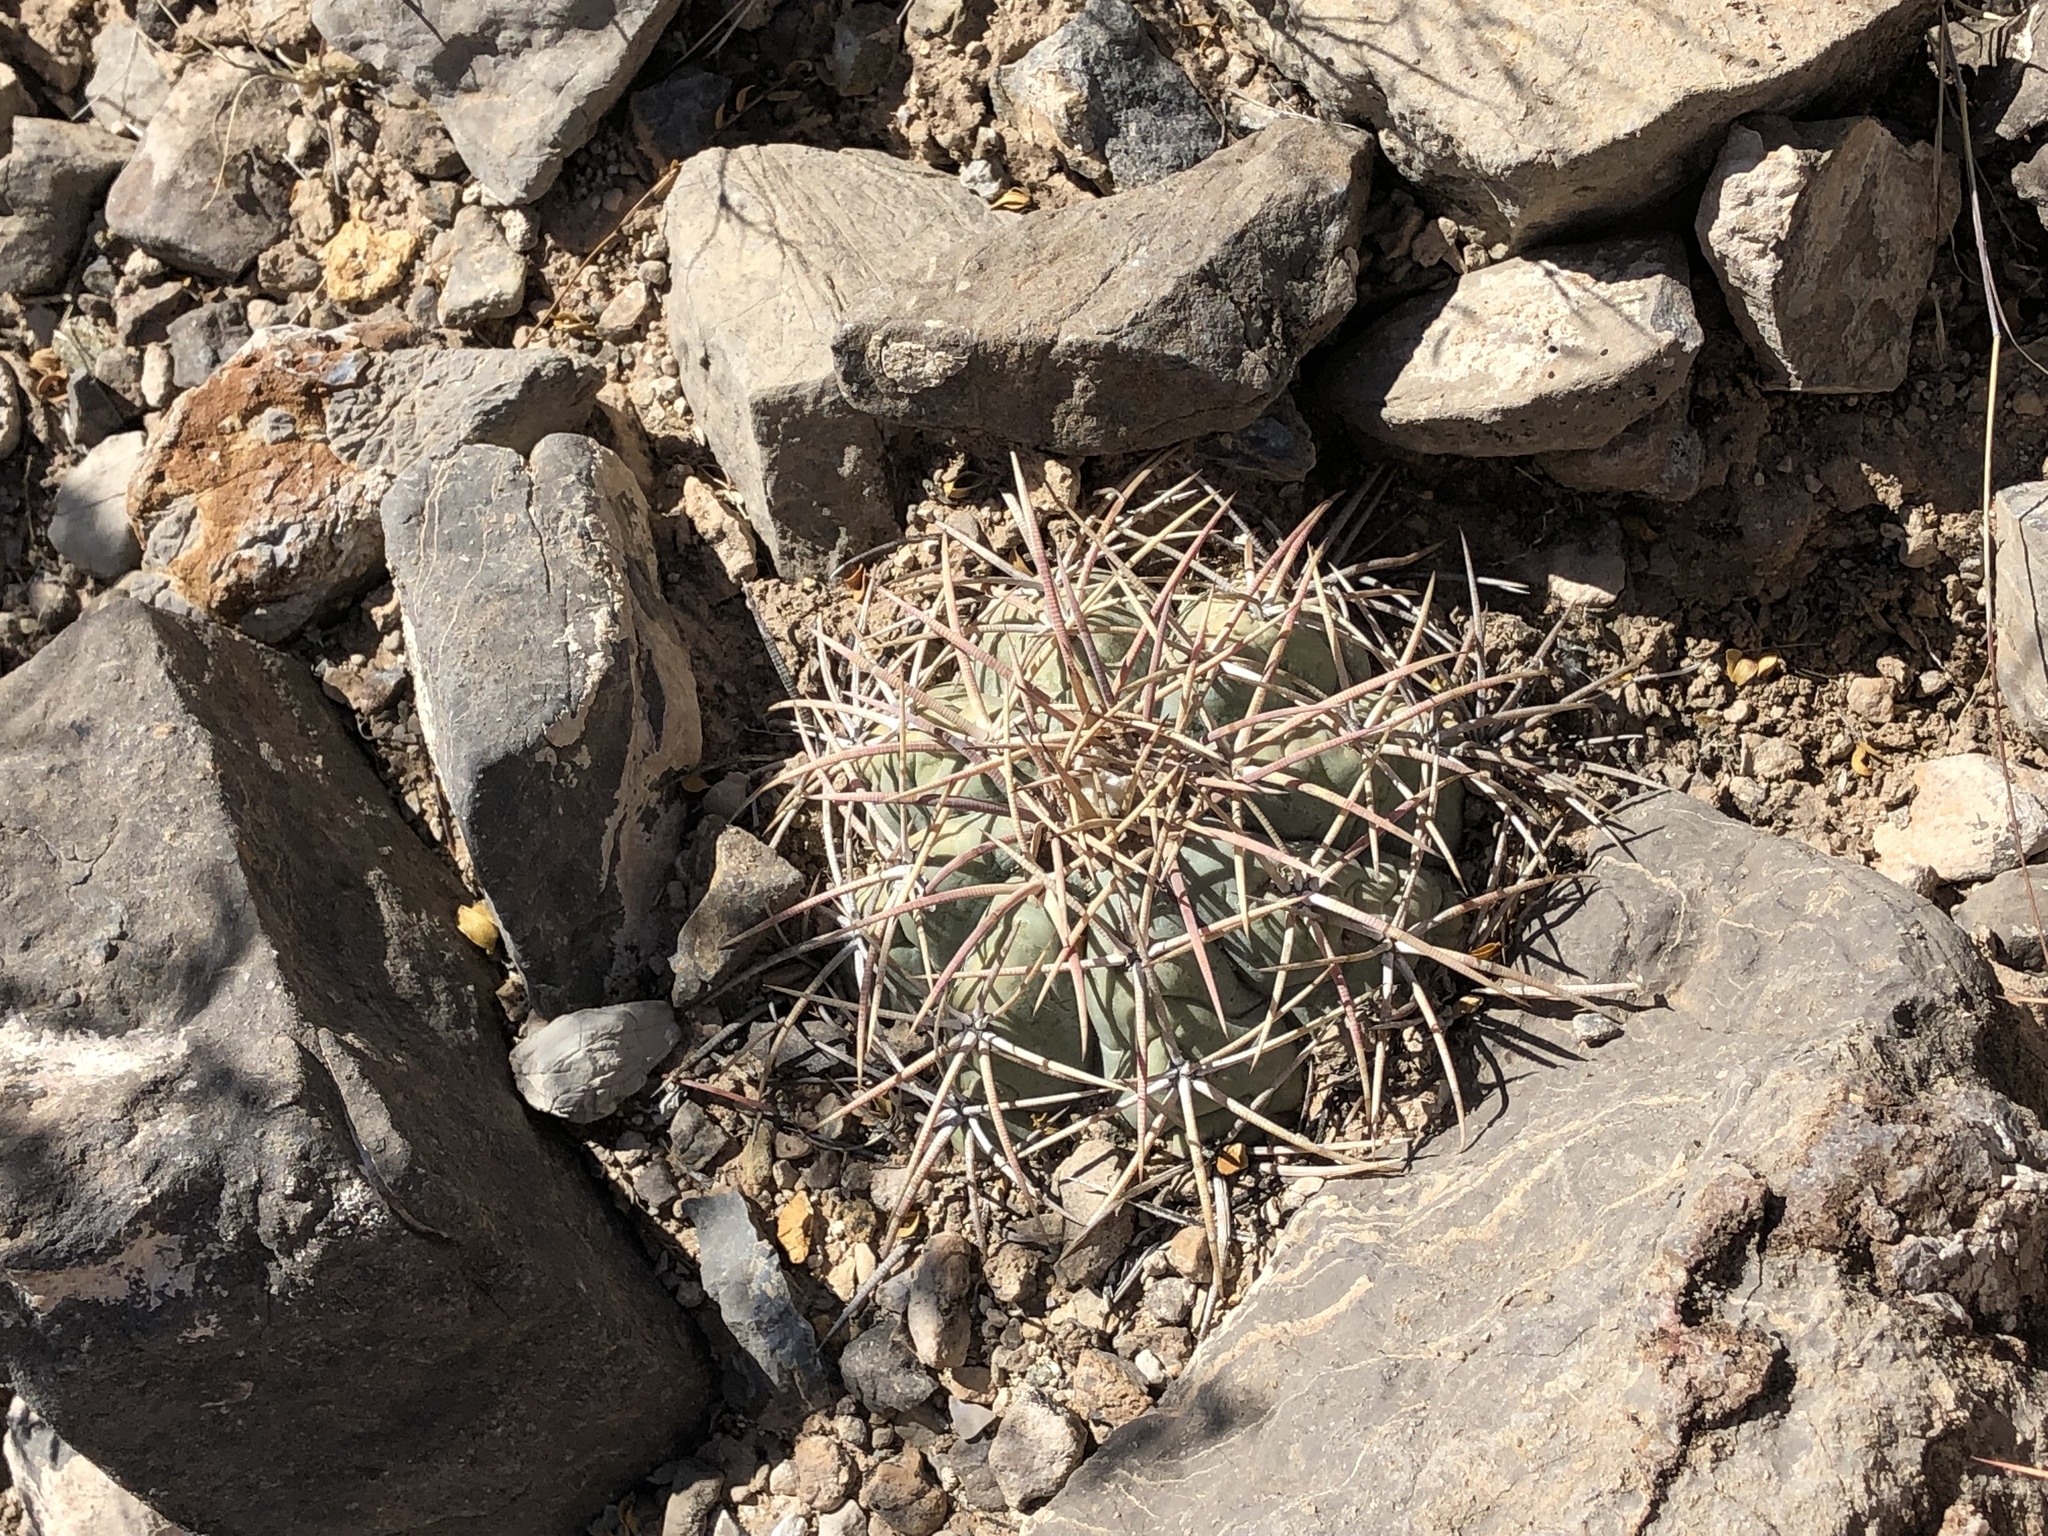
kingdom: Plantae
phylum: Tracheophyta
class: Magnoliopsida
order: Caryophyllales
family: Cactaceae
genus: Echinocactus
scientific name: Echinocactus horizonthalonius
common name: Devilshead
